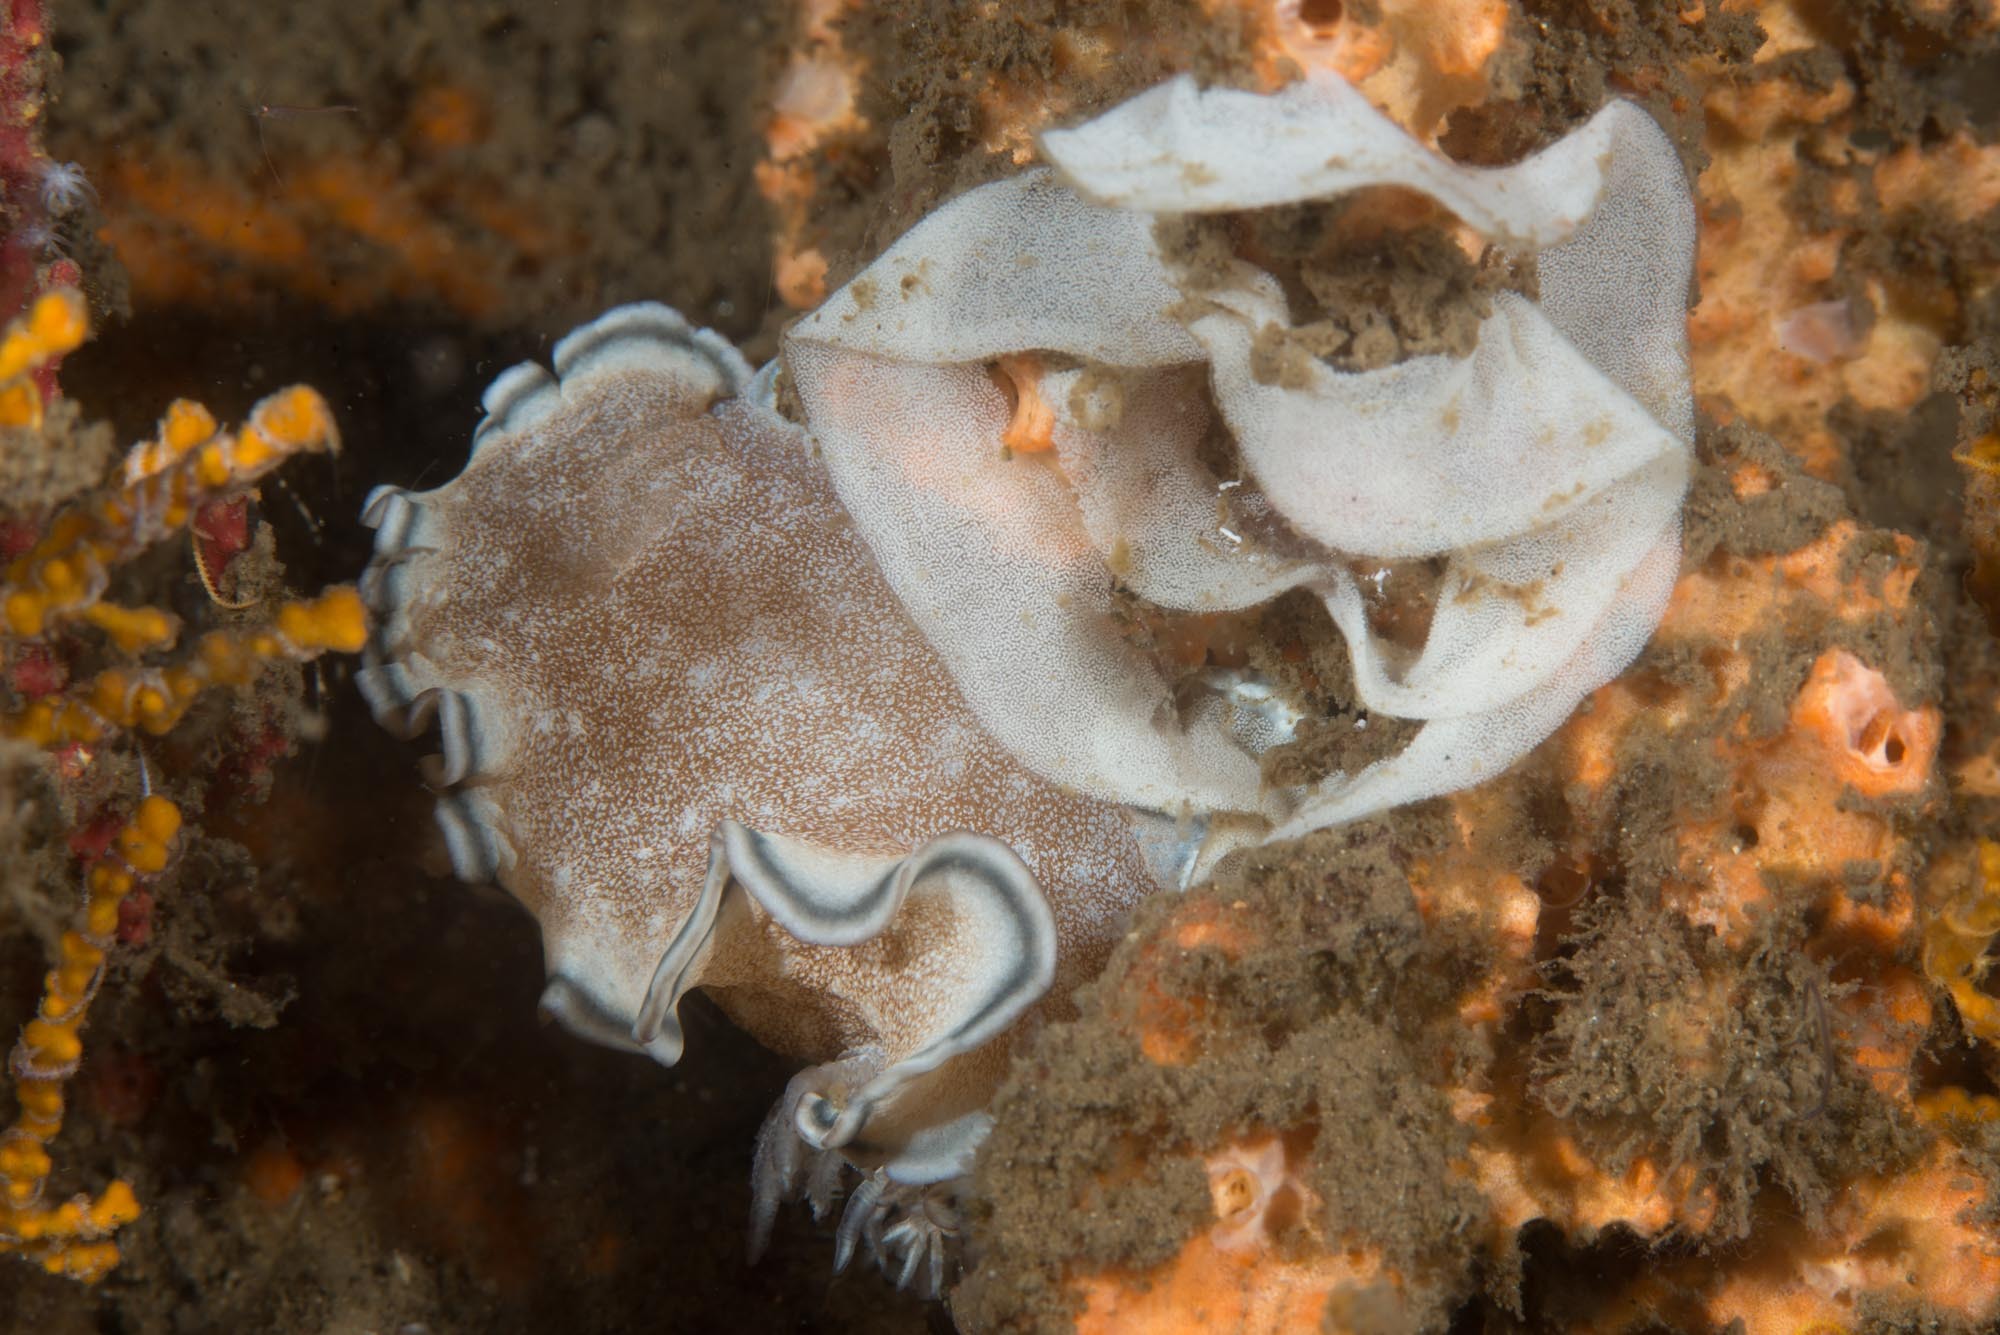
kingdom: Animalia
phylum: Mollusca
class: Gastropoda
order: Nudibranchia
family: Chromodorididae
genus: Glossodoris
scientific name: Glossodoris hikuerensis
